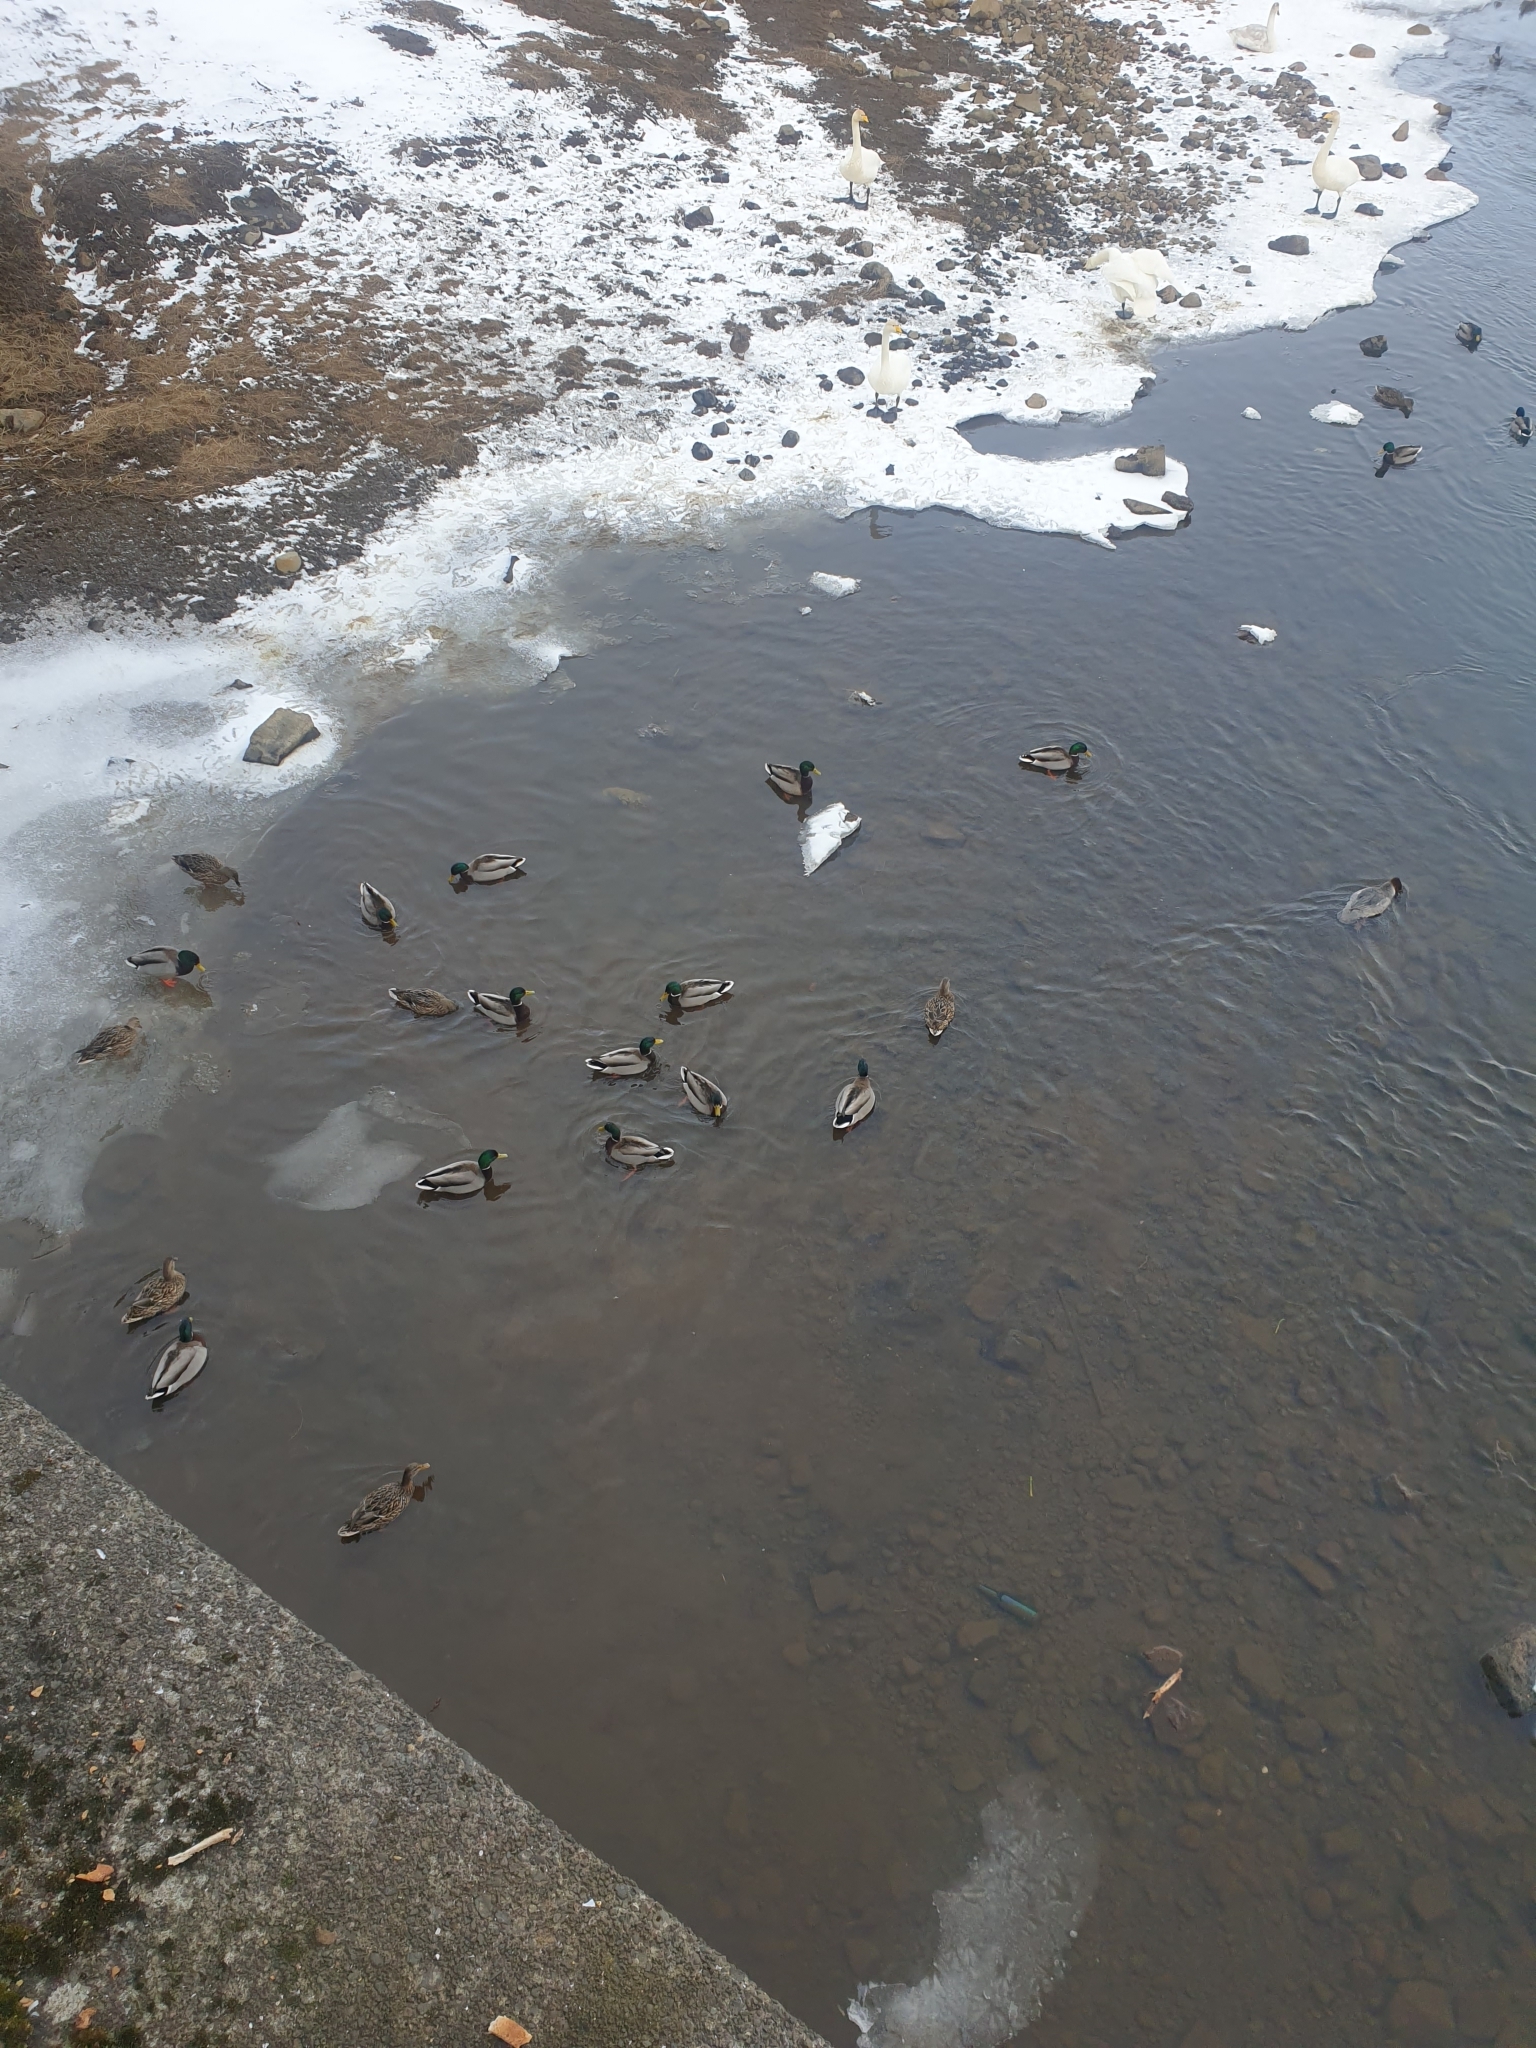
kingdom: Animalia
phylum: Chordata
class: Aves
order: Anseriformes
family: Anatidae
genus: Anas
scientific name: Anas platyrhynchos
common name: Mallard
